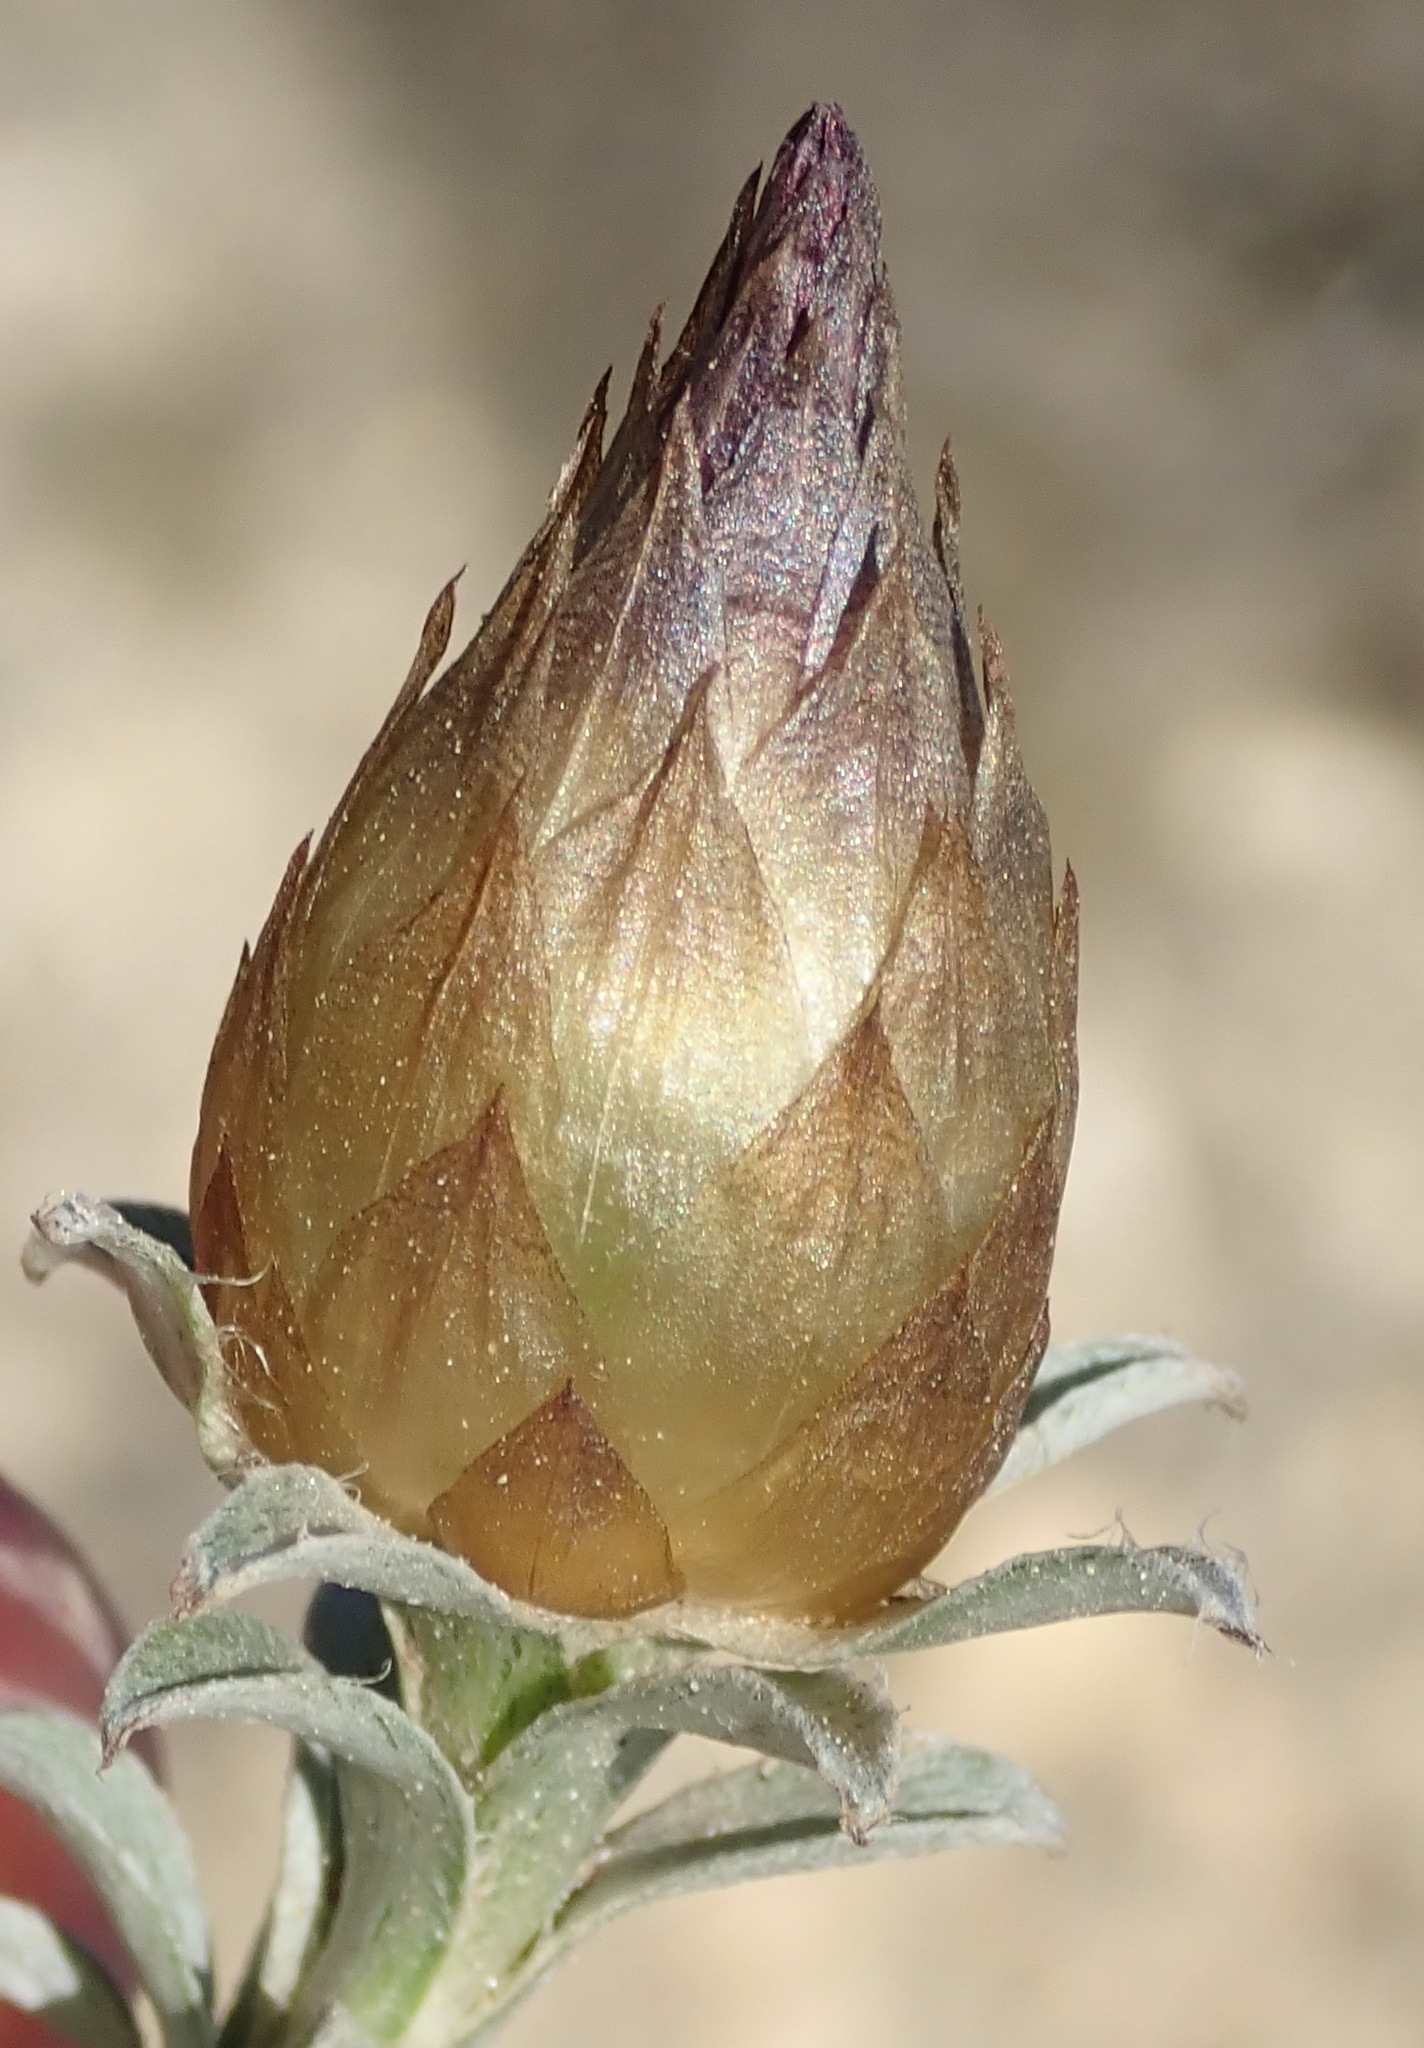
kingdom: Plantae
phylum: Tracheophyta
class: Magnoliopsida
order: Asterales
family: Asteraceae
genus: Helichrysum
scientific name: Helichrysum retortum
